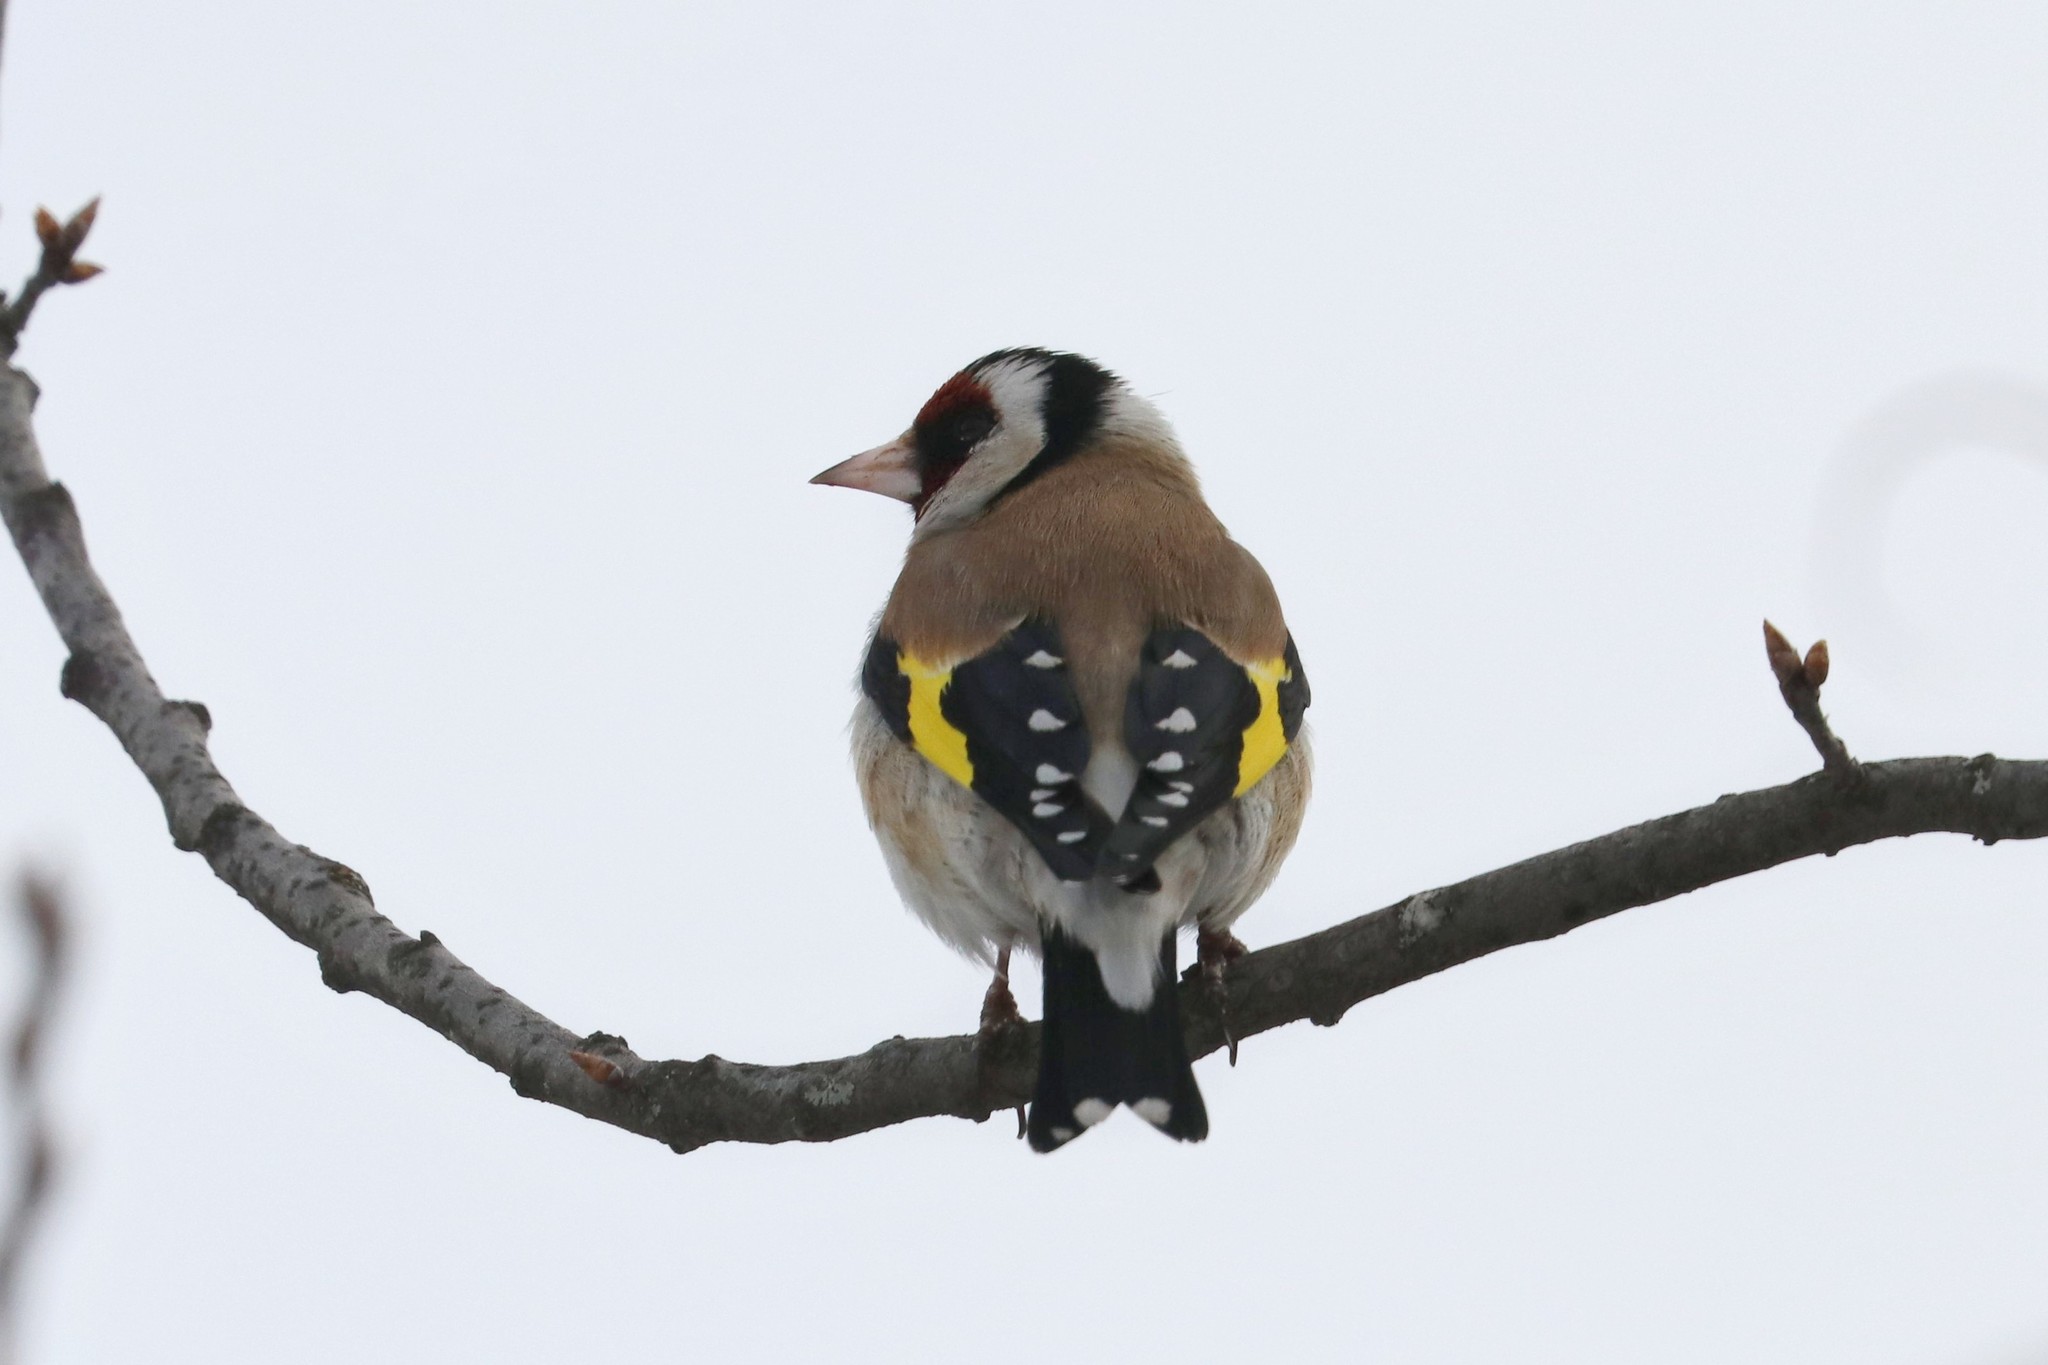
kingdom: Animalia
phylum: Chordata
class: Aves
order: Passeriformes
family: Fringillidae
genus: Carduelis
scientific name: Carduelis carduelis
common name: European goldfinch
